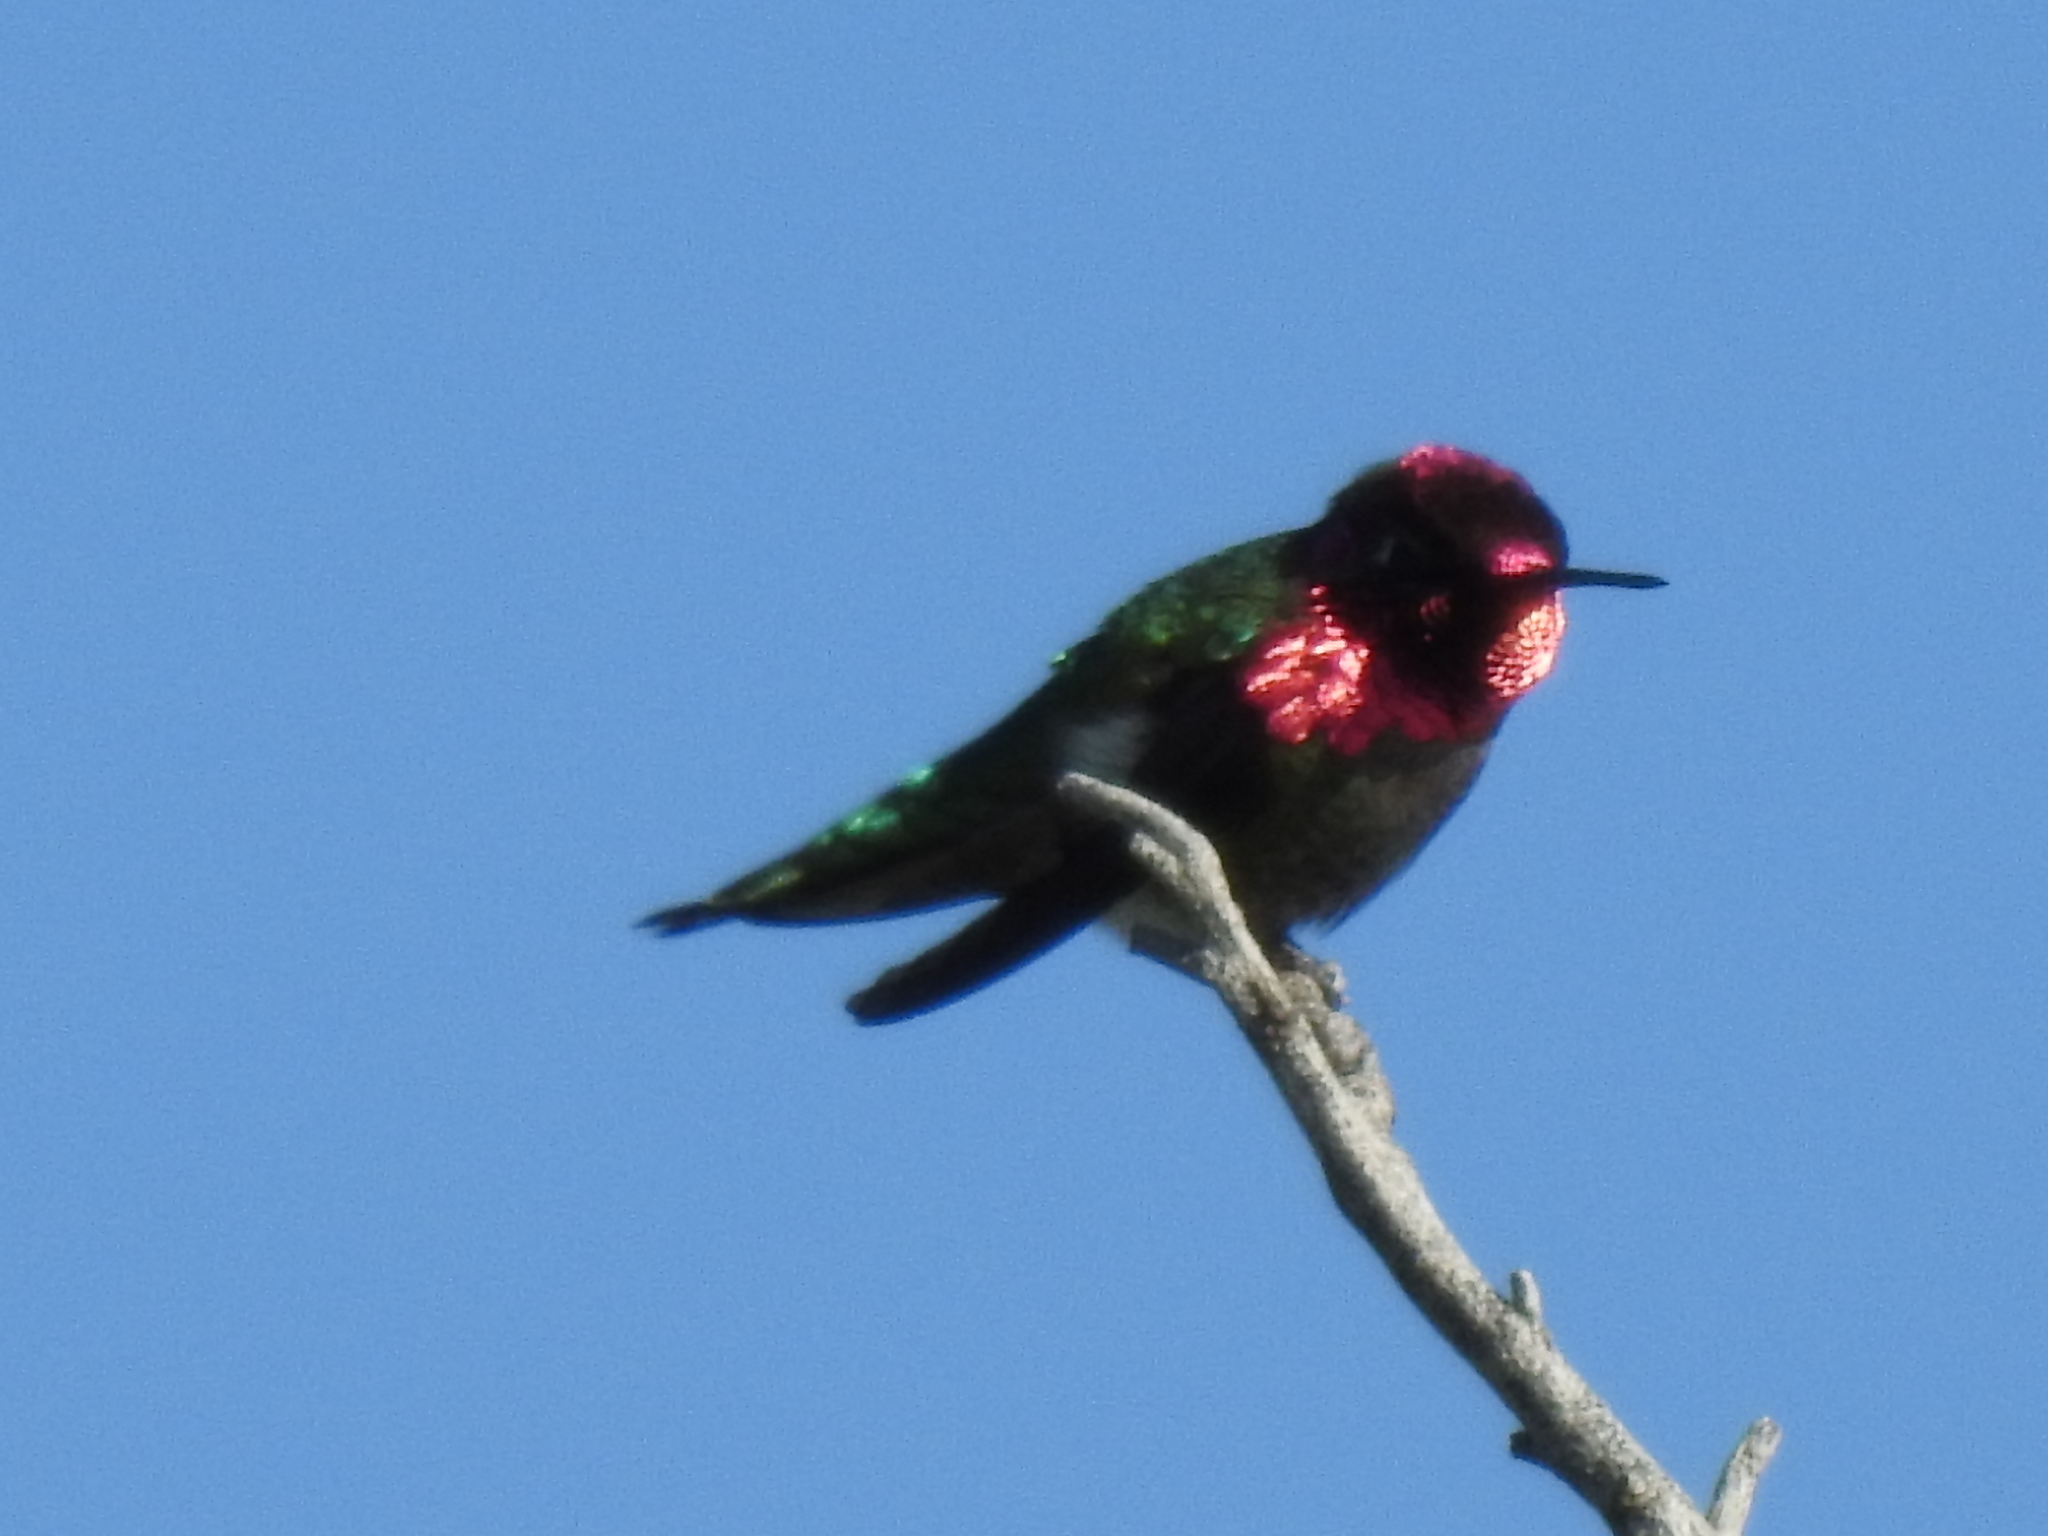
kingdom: Animalia
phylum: Chordata
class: Aves
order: Apodiformes
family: Trochilidae
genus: Calypte
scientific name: Calypte anna
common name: Anna's hummingbird
